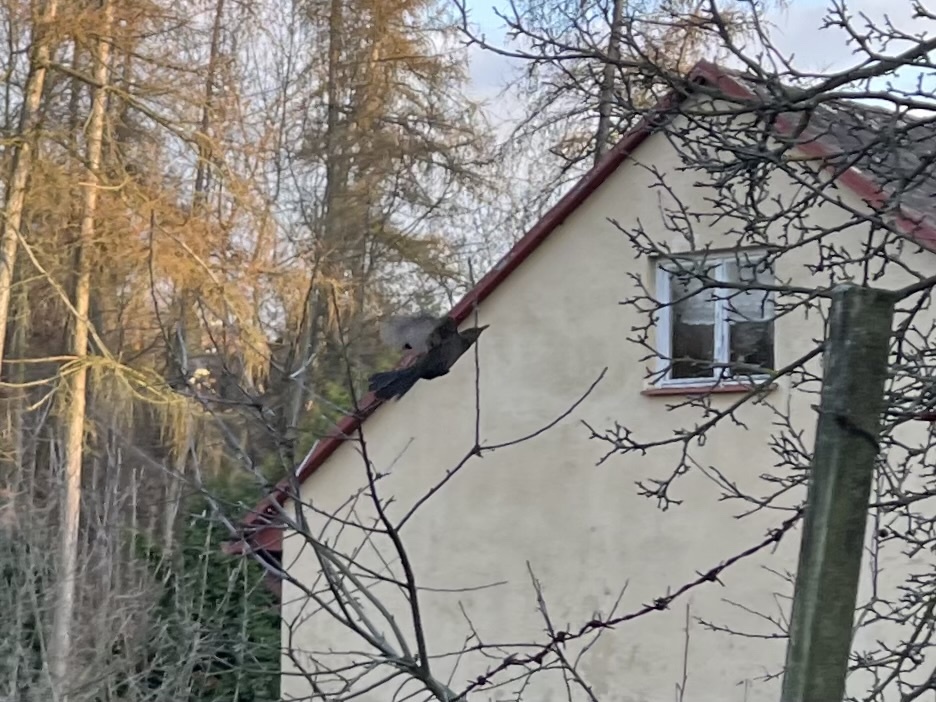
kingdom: Animalia
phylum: Chordata
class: Aves
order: Passeriformes
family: Turdidae
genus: Turdus
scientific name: Turdus merula
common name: Common blackbird
